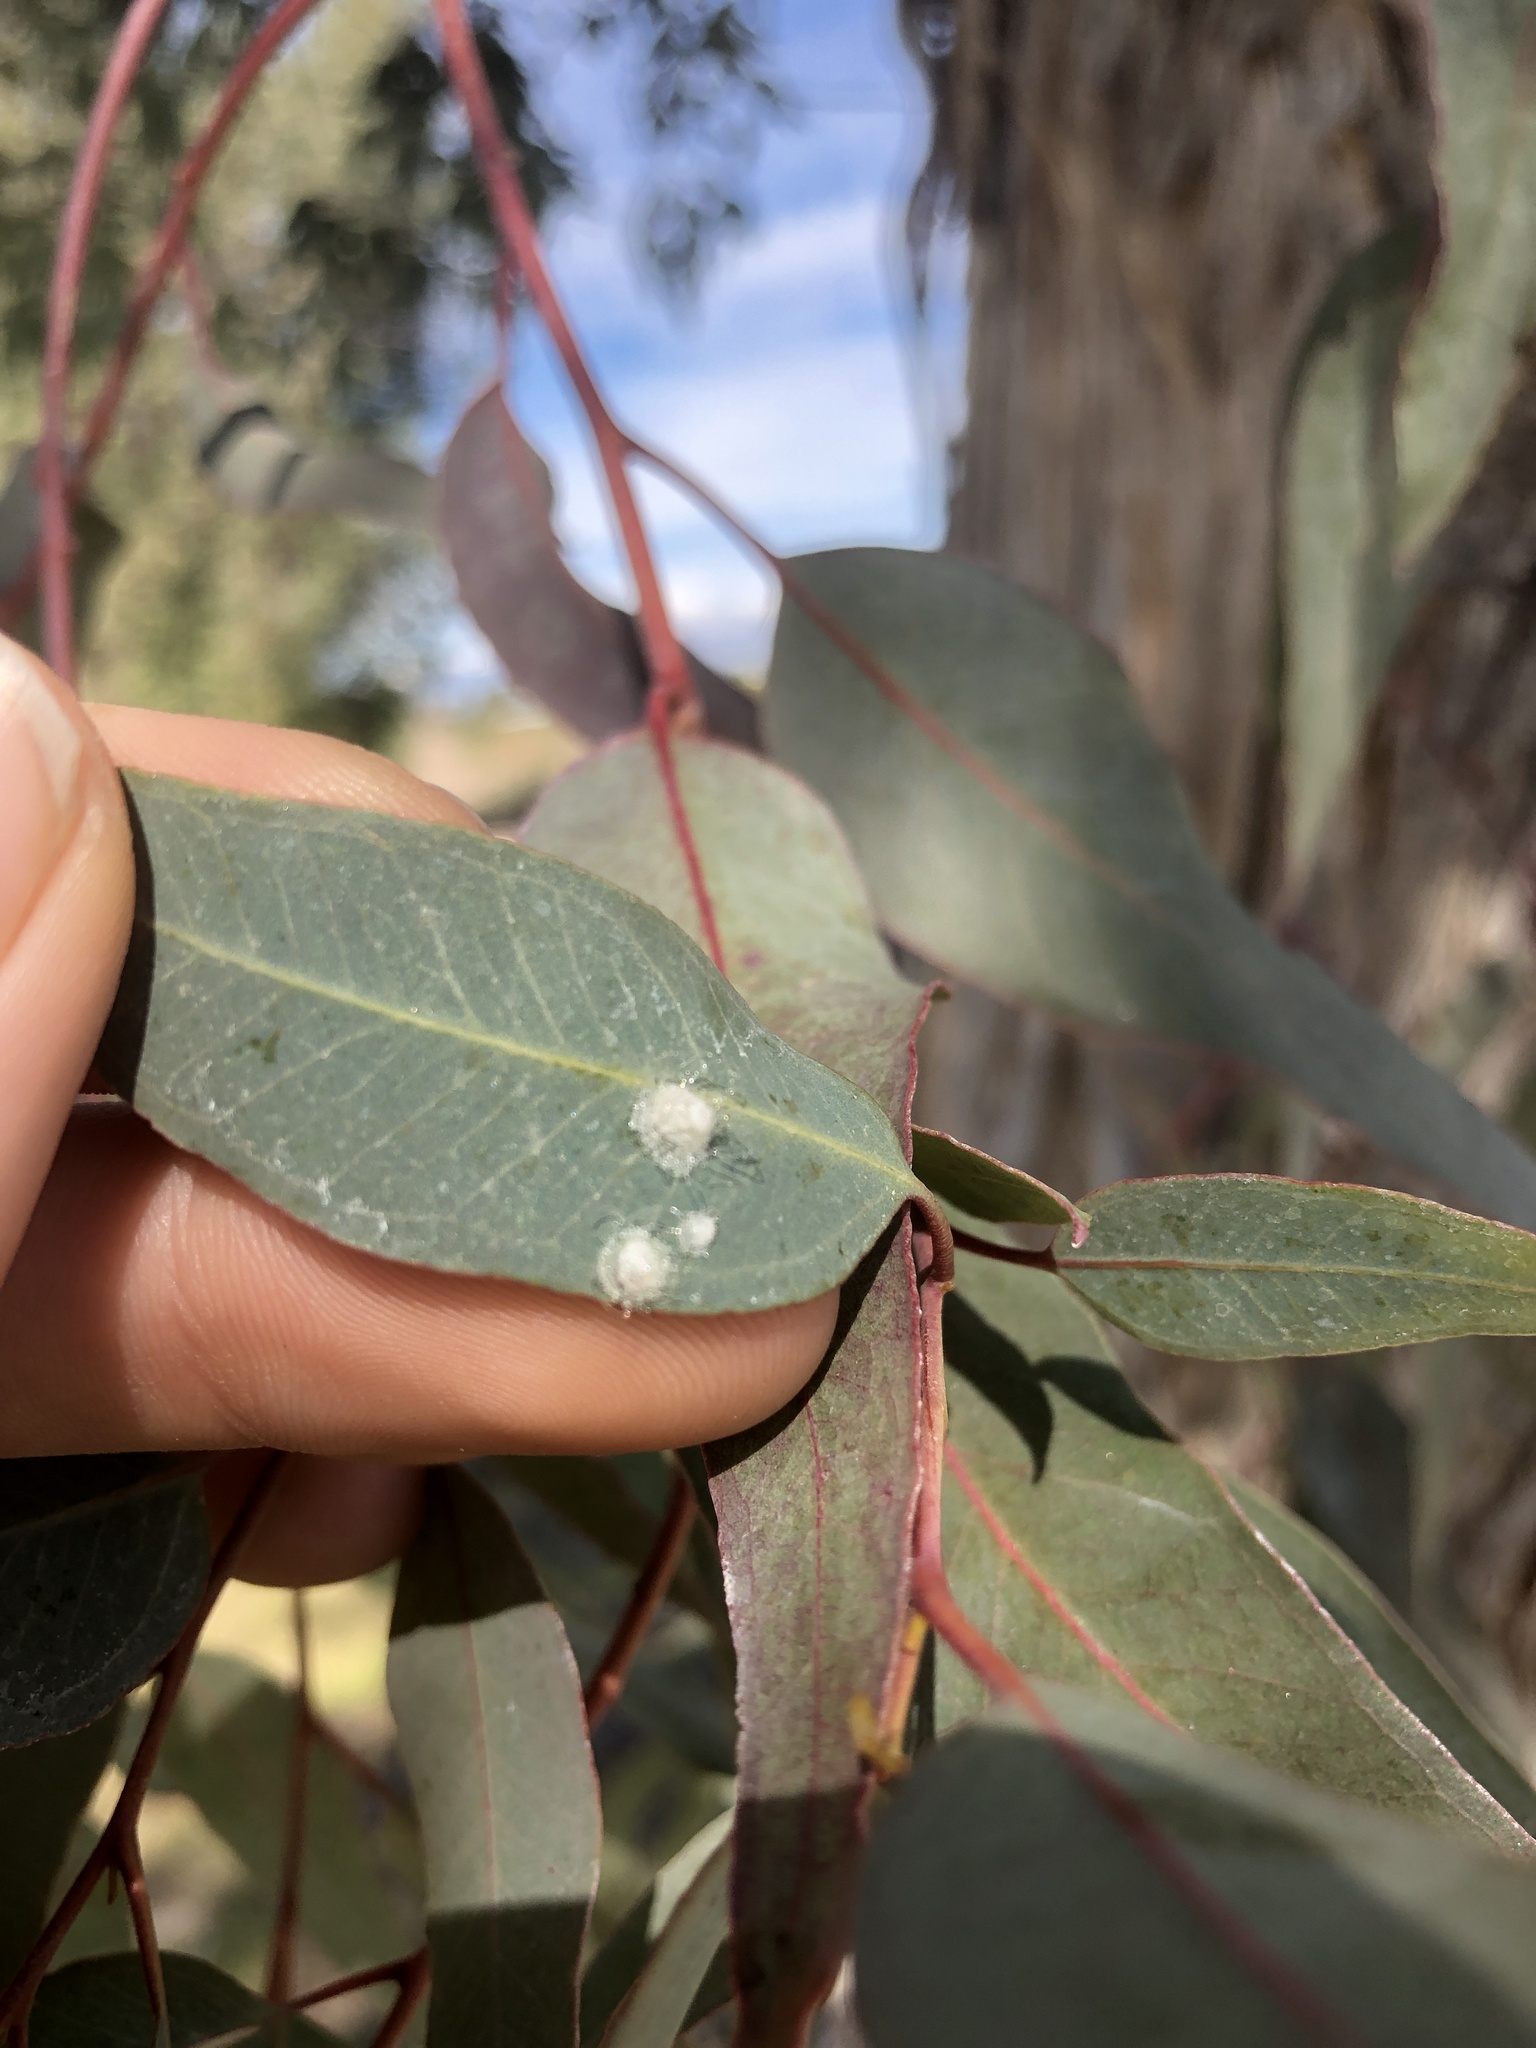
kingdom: Animalia
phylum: Arthropoda
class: Insecta
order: Hemiptera
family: Aphalaridae
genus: Glycaspis
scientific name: Glycaspis brimblecombei
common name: Red gum lerp psyllid
